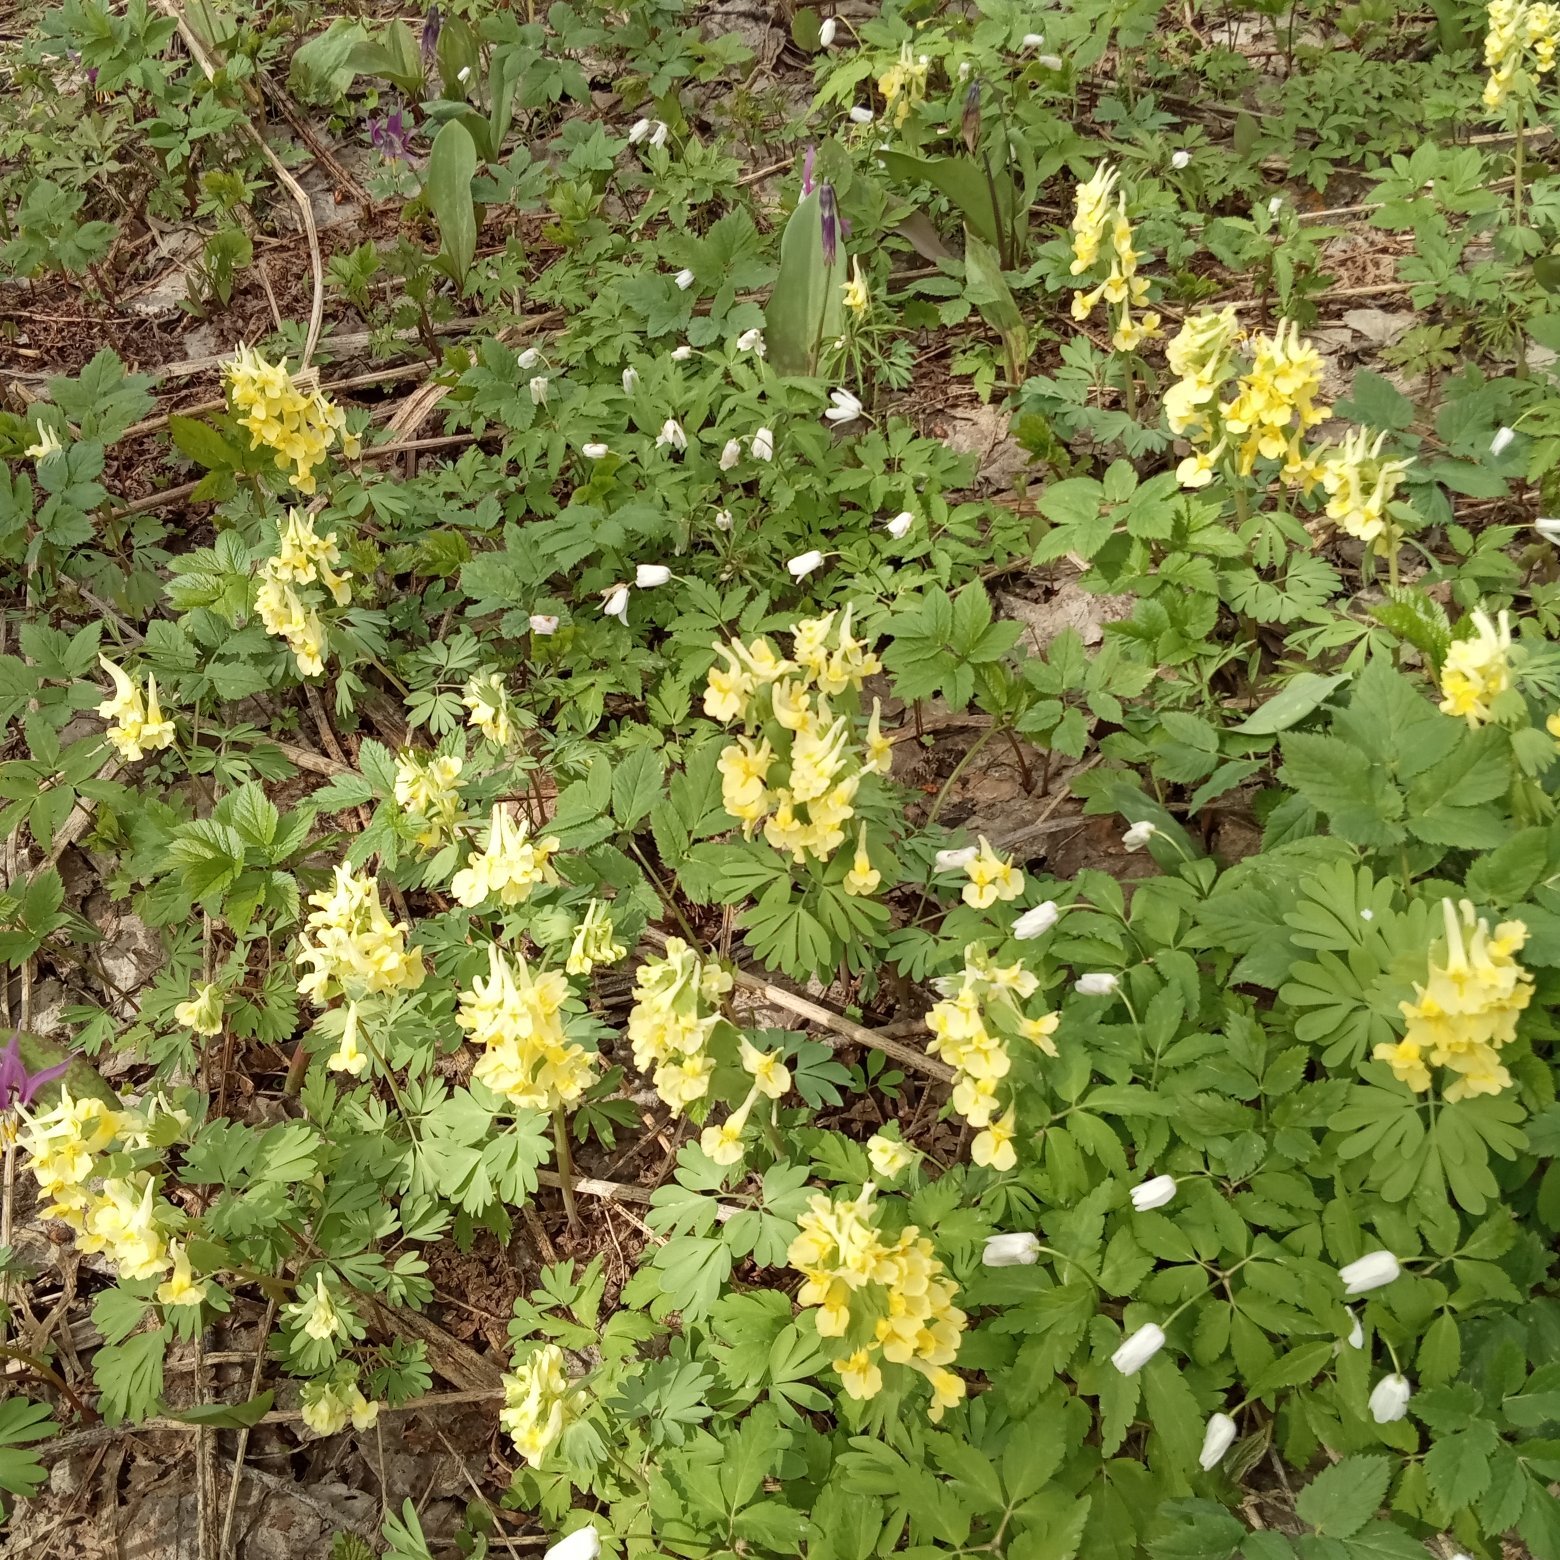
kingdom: Plantae
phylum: Tracheophyta
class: Magnoliopsida
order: Ranunculales
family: Ranunculaceae
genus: Anemone
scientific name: Anemone altaica
